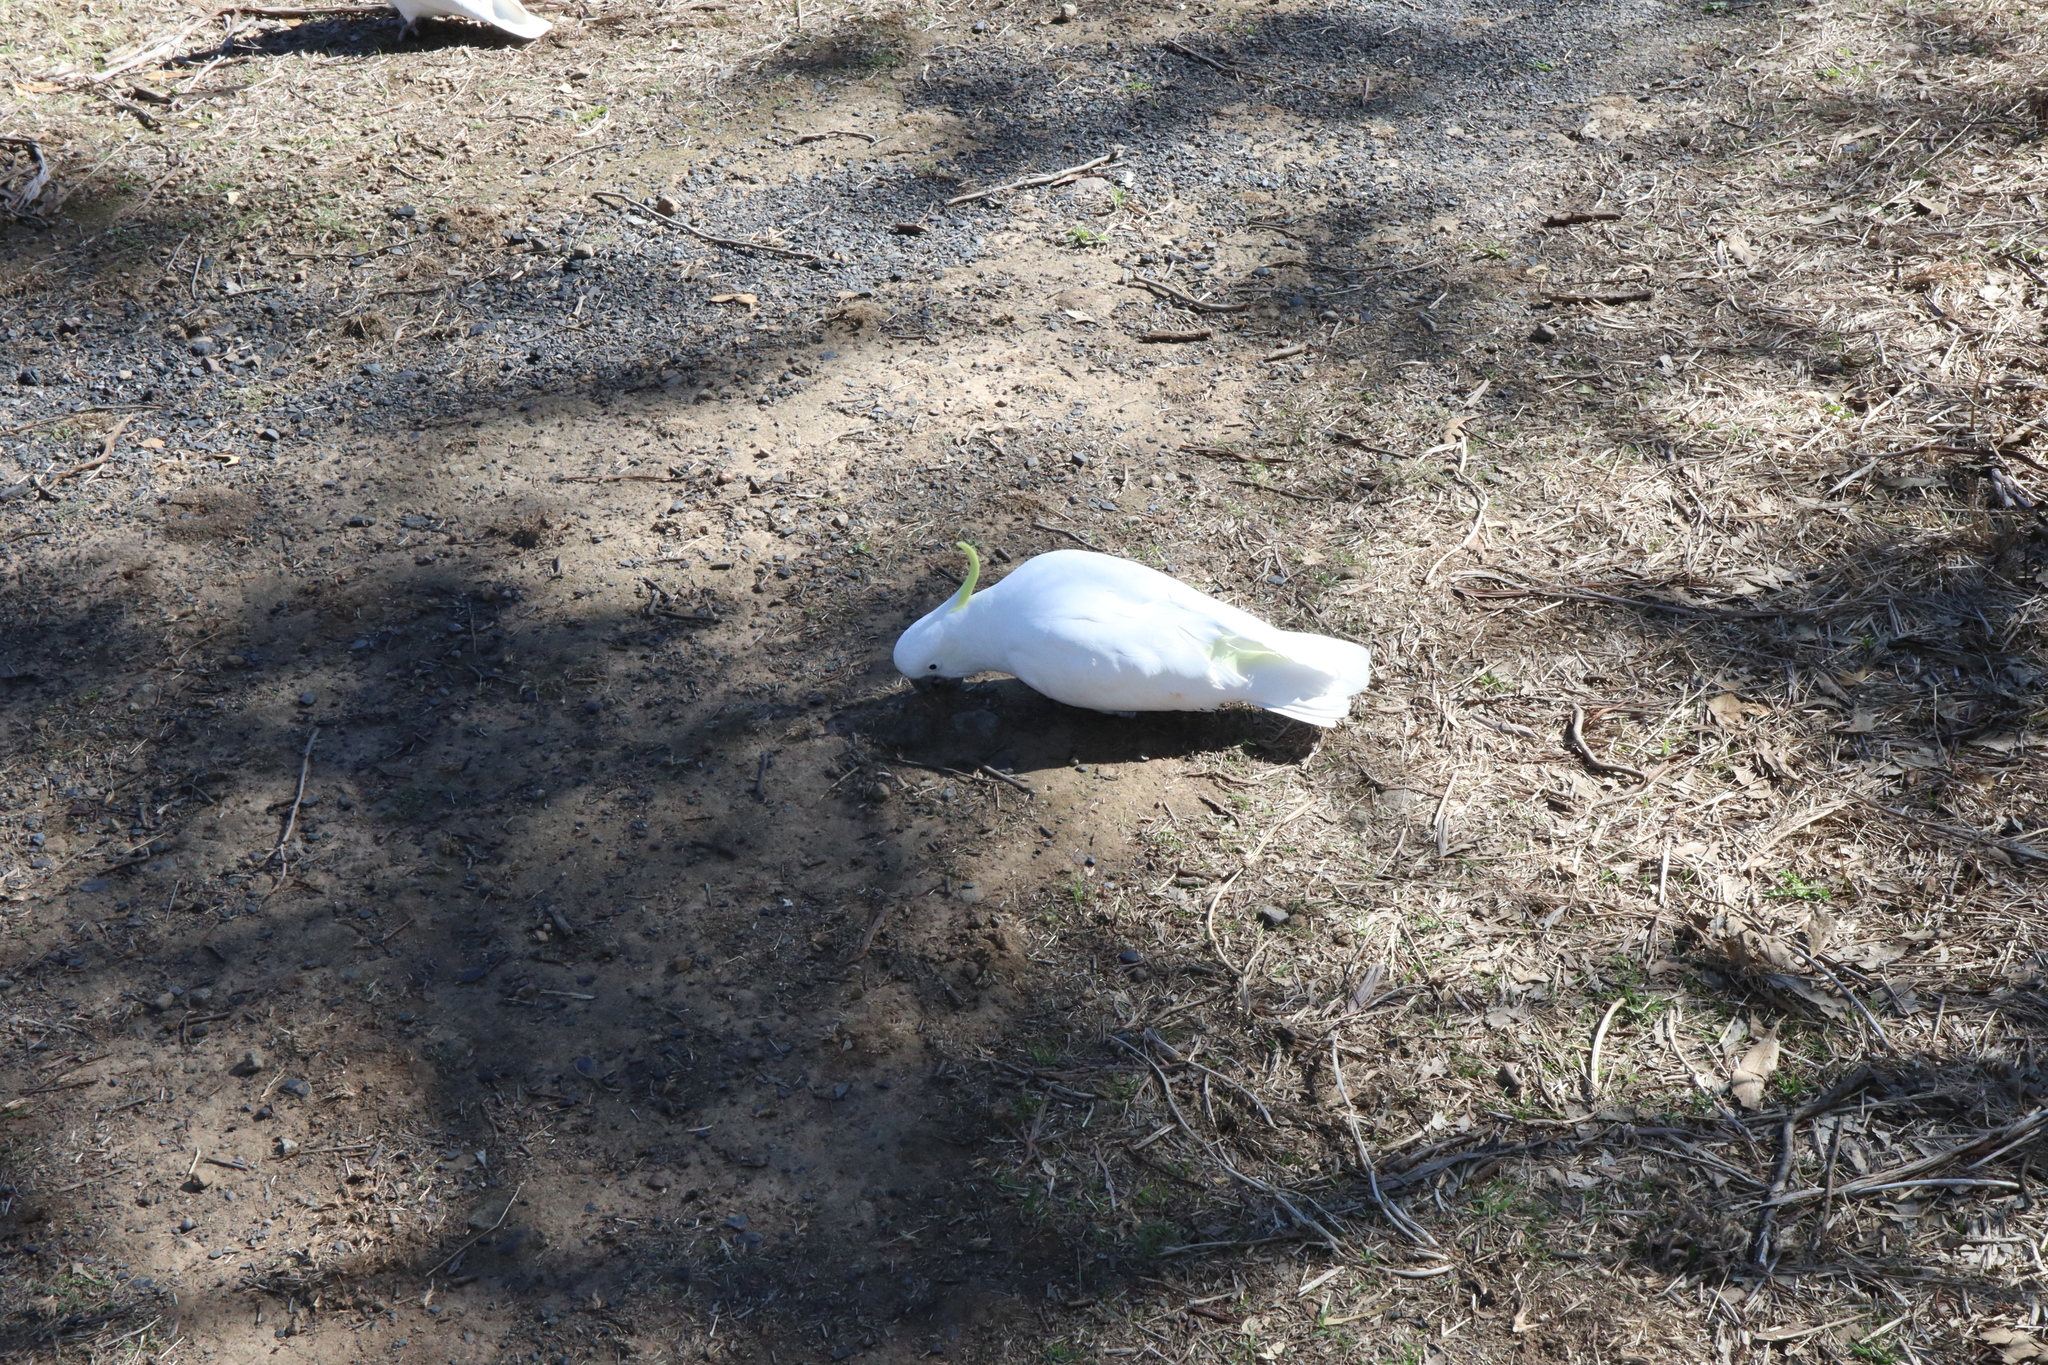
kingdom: Animalia
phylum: Chordata
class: Aves
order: Psittaciformes
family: Psittacidae
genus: Cacatua
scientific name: Cacatua galerita
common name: Sulphur-crested cockatoo
